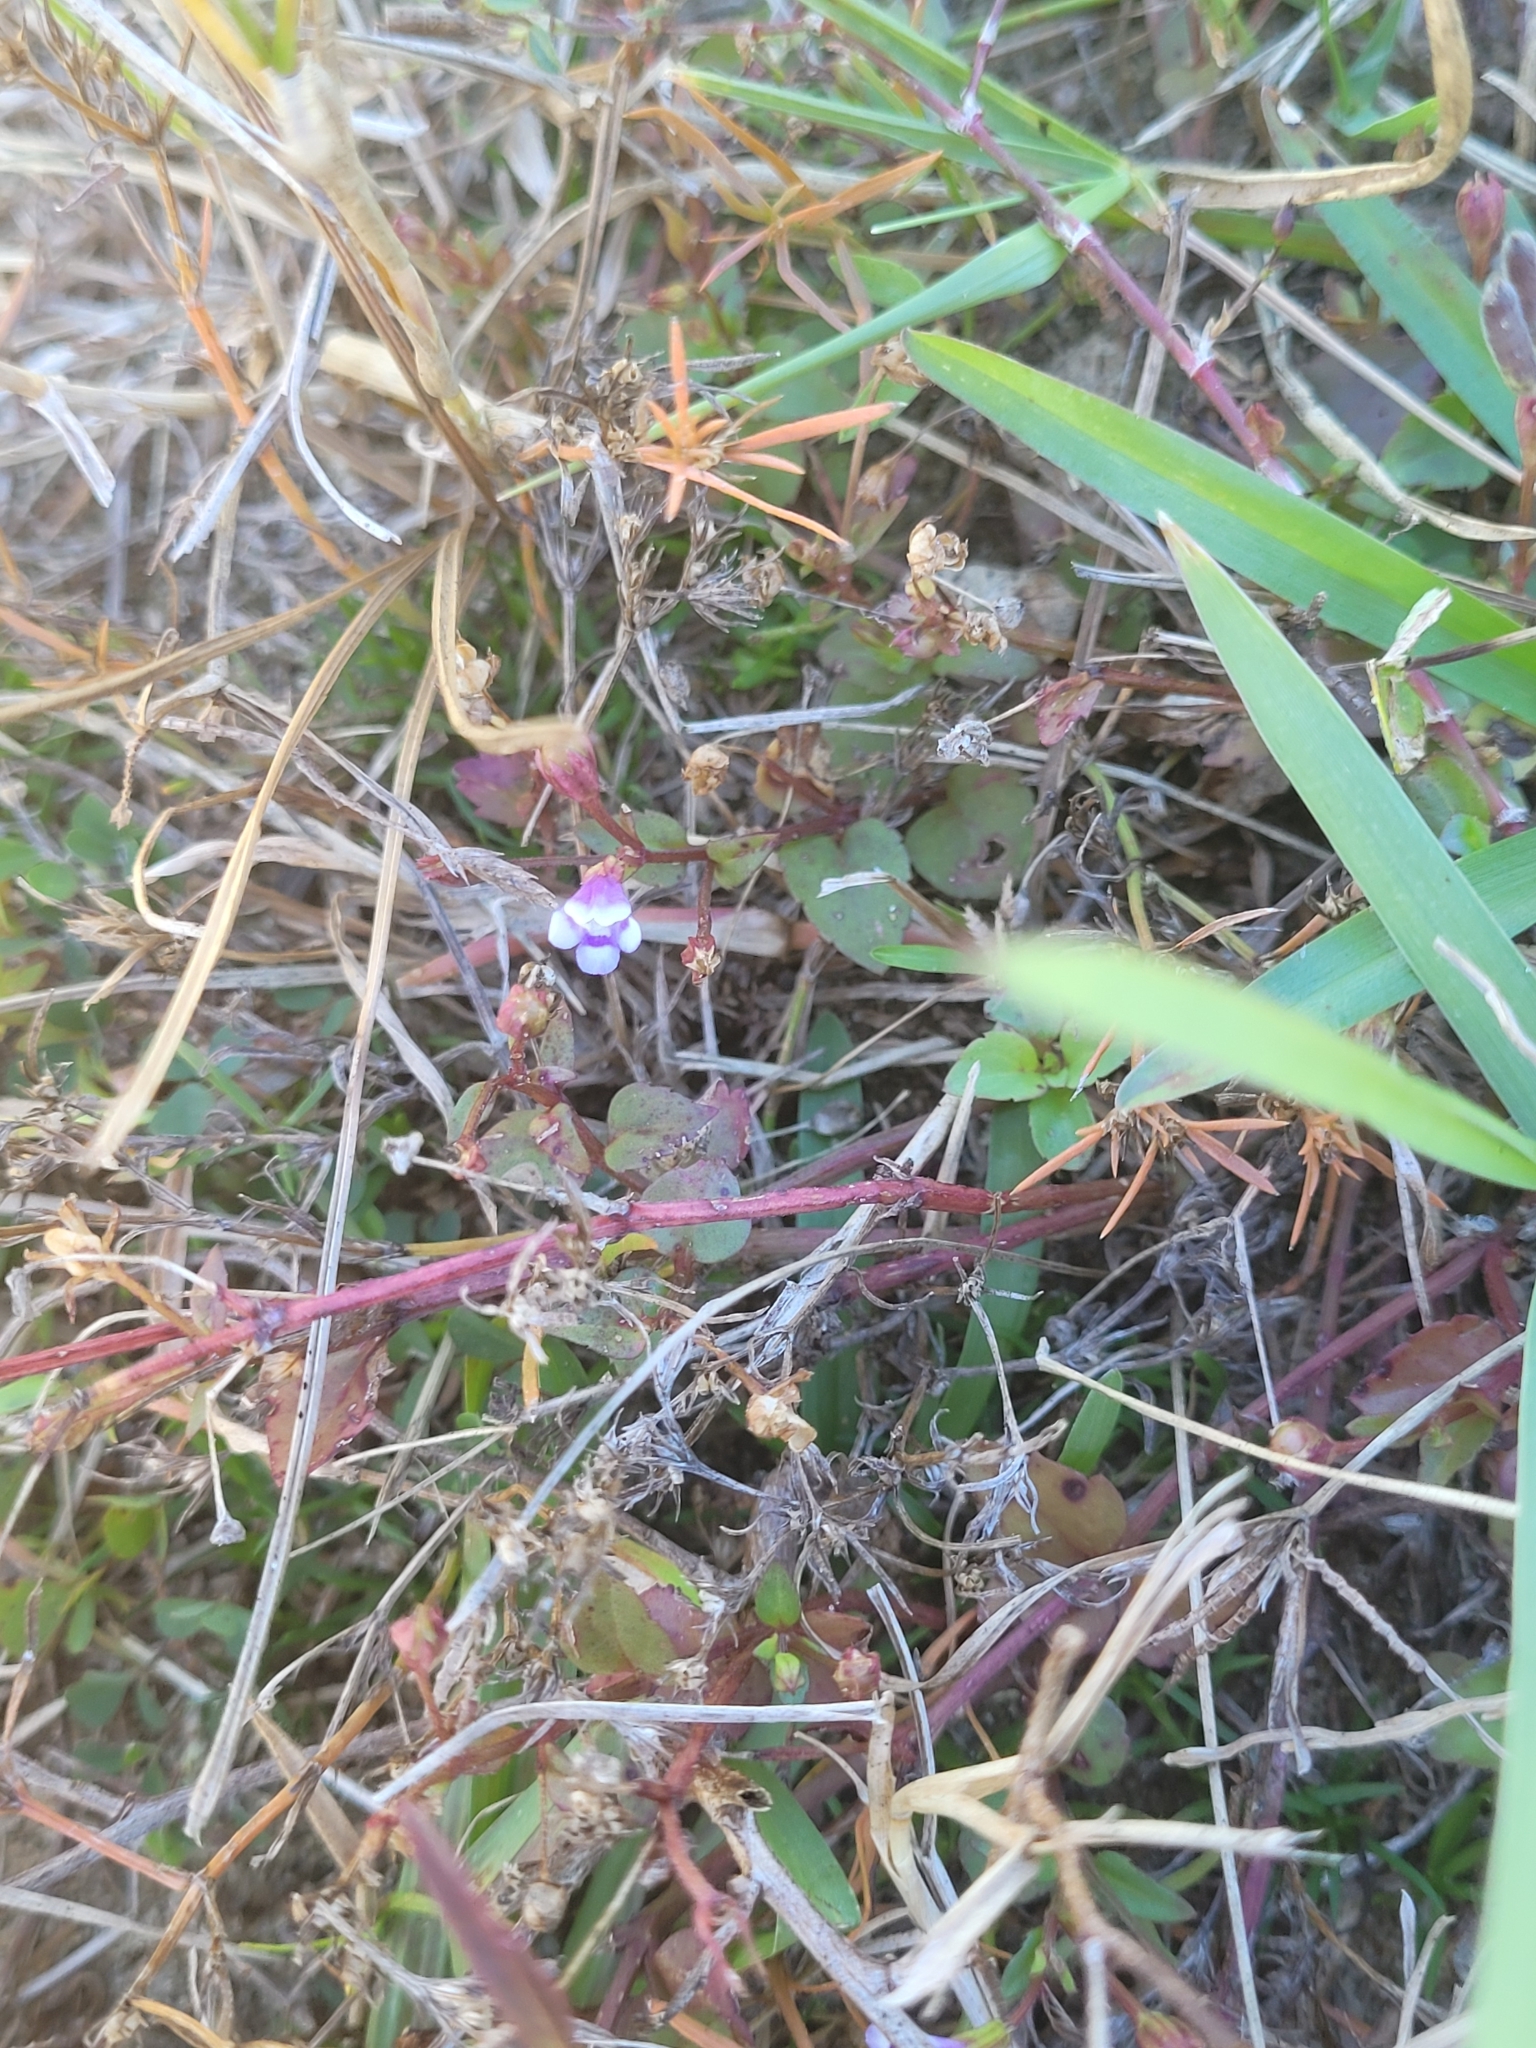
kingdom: Plantae
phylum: Tracheophyta
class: Magnoliopsida
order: Lamiales
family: Linderniaceae
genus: Torenia
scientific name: Torenia crustacea
